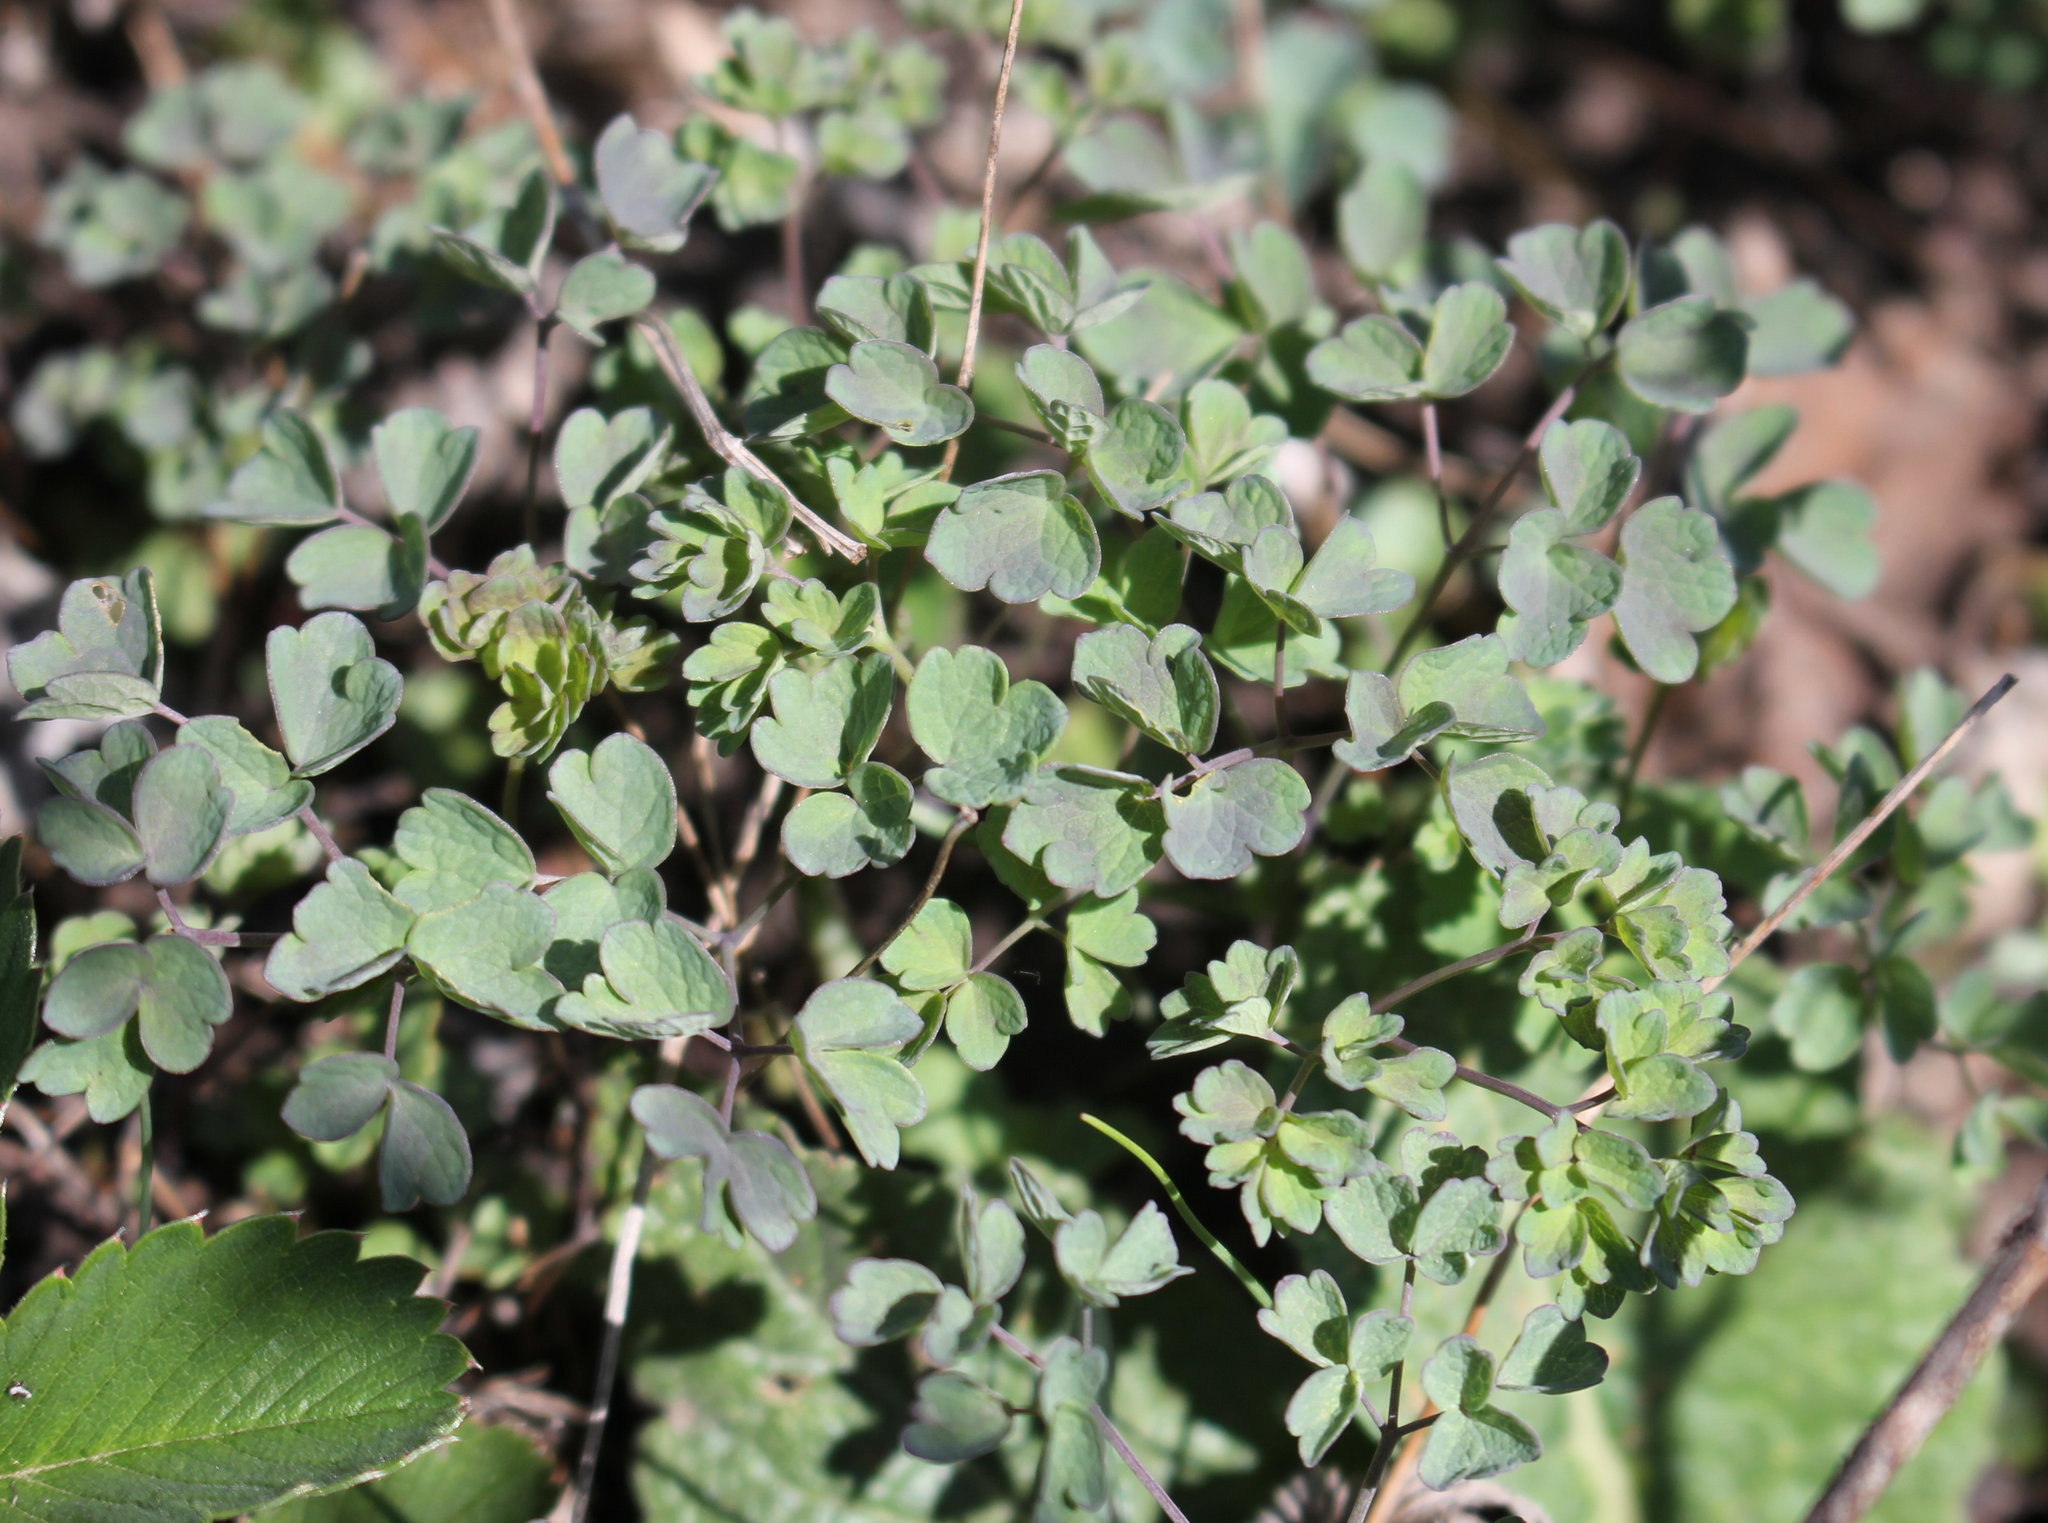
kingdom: Plantae
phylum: Tracheophyta
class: Magnoliopsida
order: Ranunculales
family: Ranunculaceae
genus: Thalictrum
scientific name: Thalictrum minus
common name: Lesser meadow-rue
